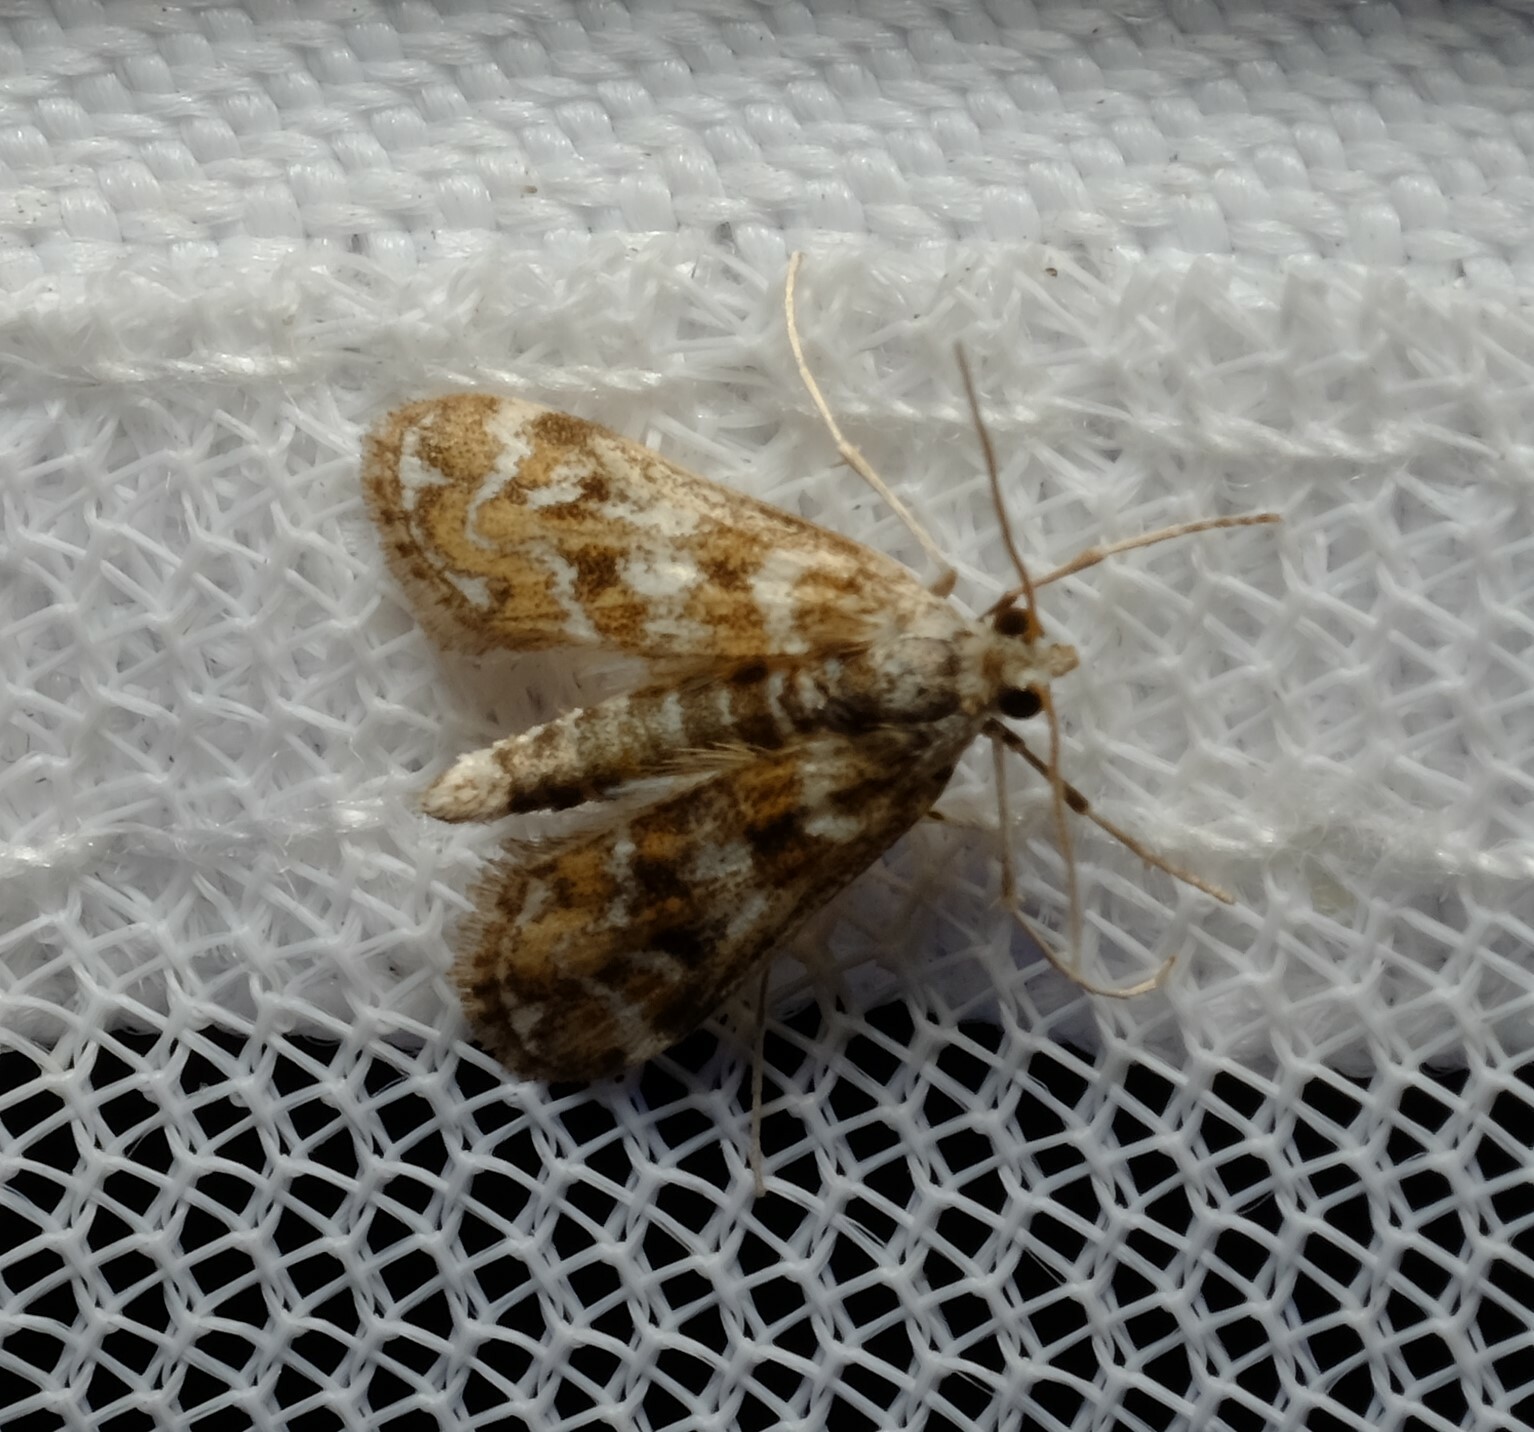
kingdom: Animalia
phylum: Arthropoda
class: Insecta
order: Lepidoptera
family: Crambidae
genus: Hygraula
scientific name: Hygraula nitens
